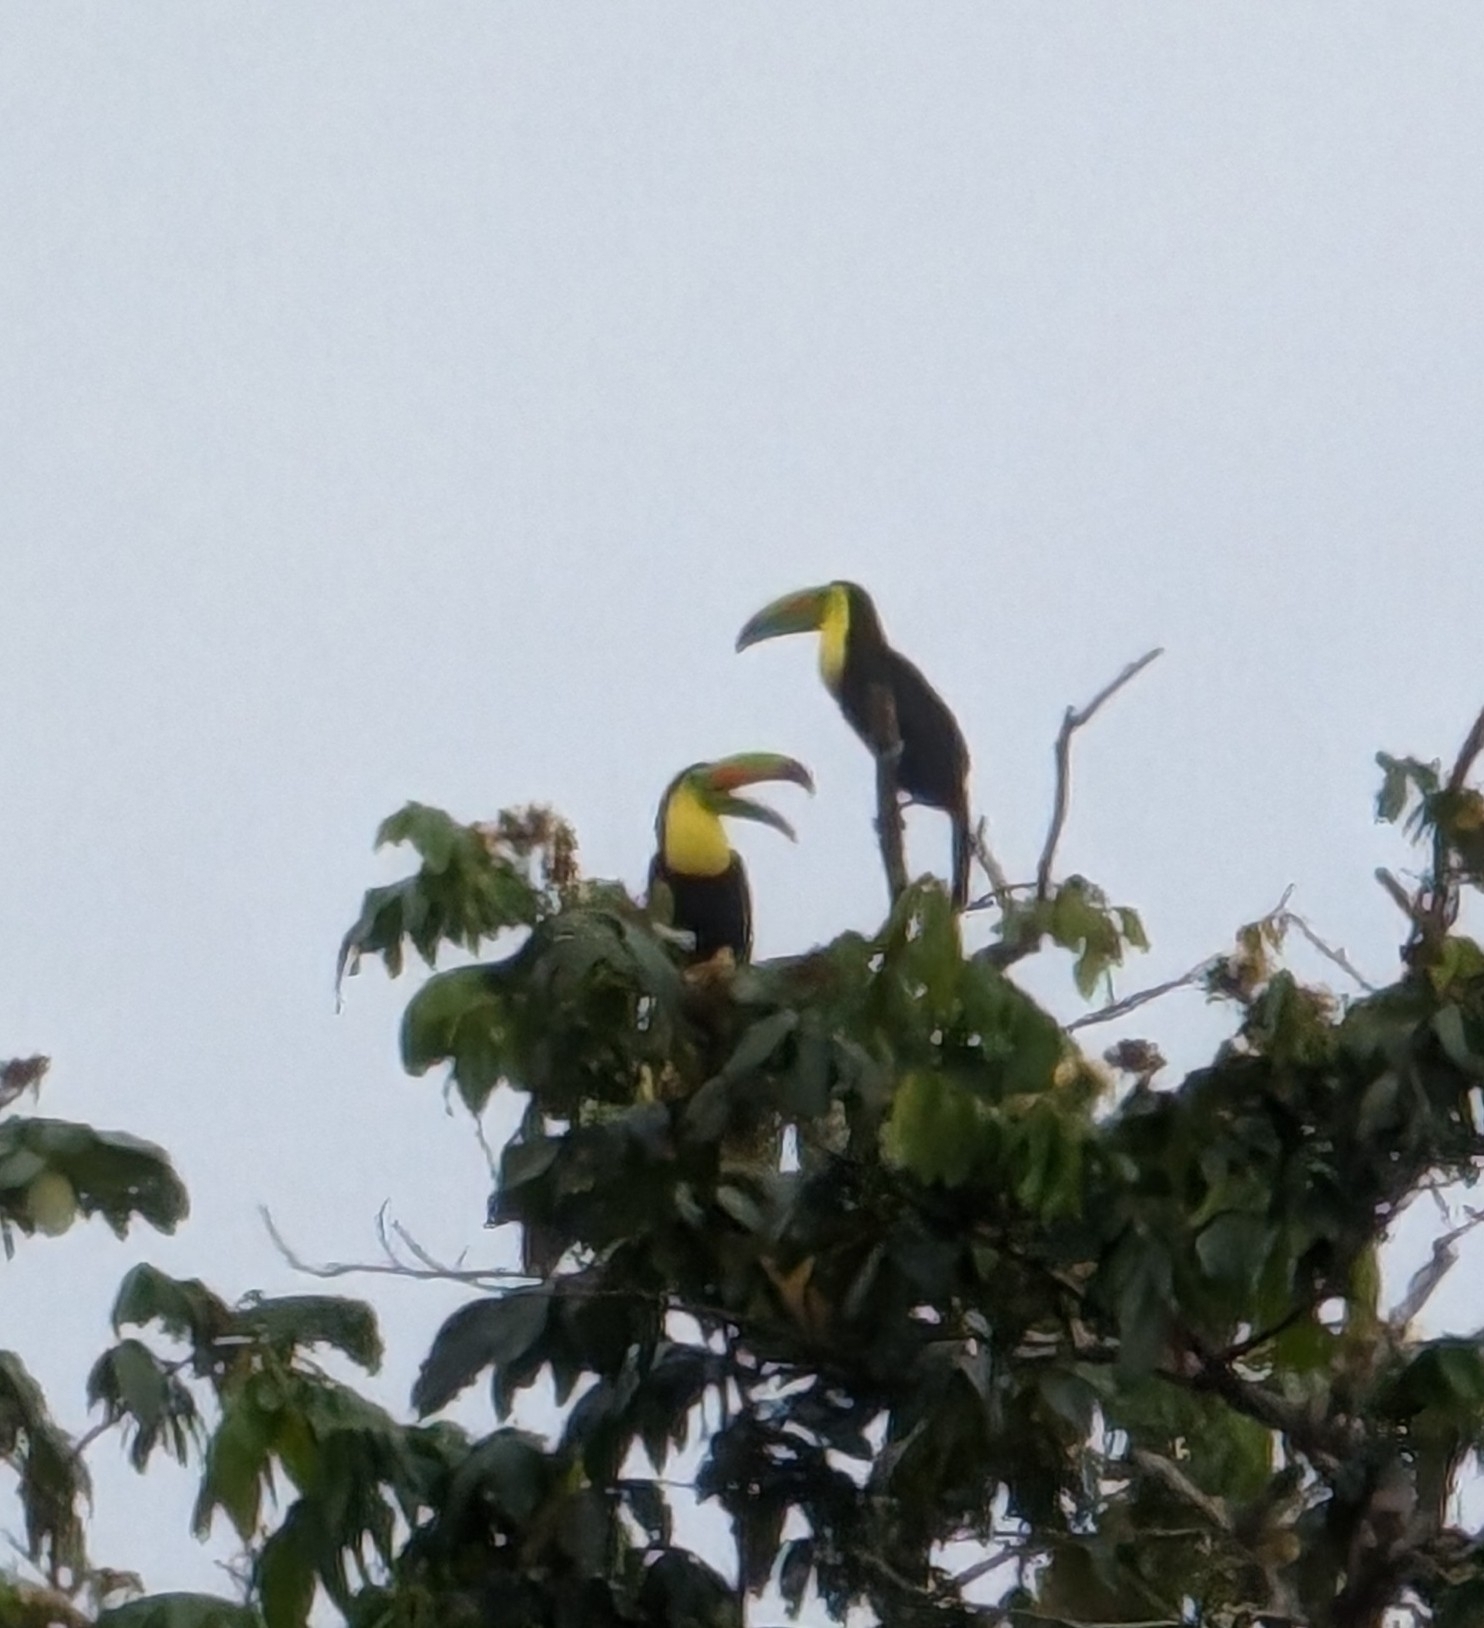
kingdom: Animalia
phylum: Chordata
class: Aves
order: Piciformes
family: Ramphastidae
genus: Ramphastos
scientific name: Ramphastos sulfuratus
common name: Keel-billed toucan
